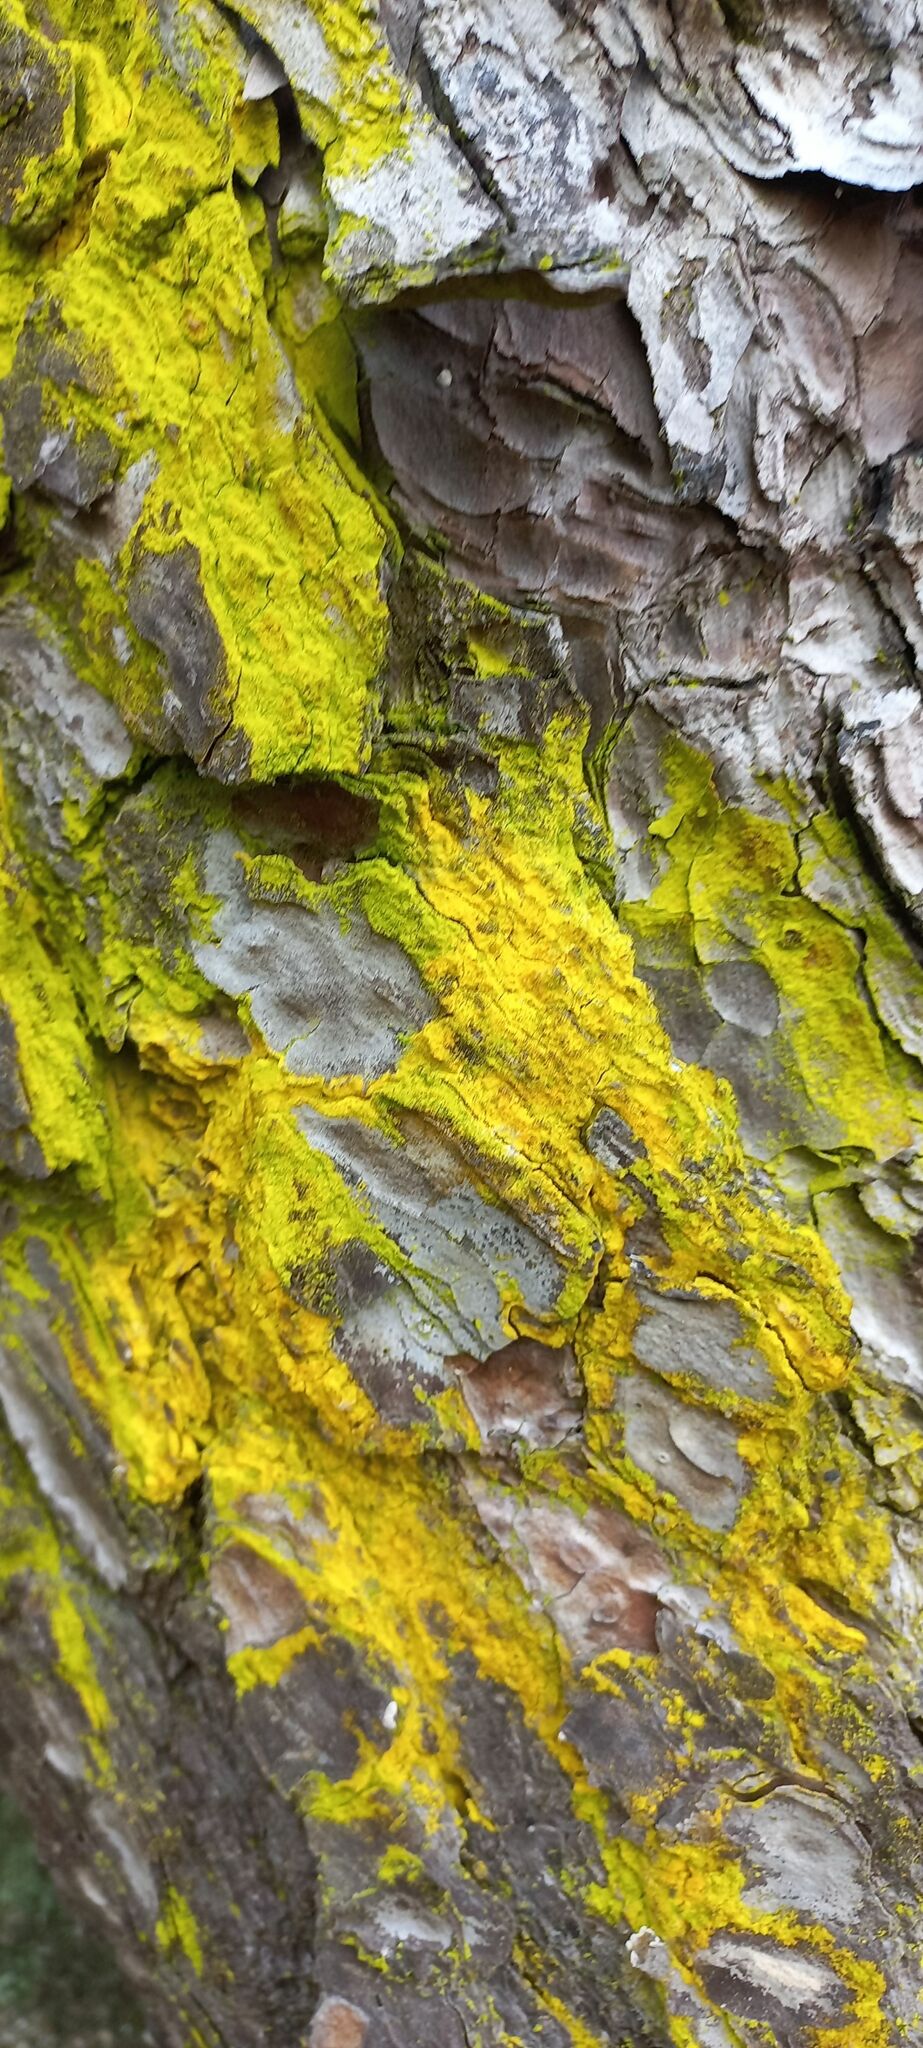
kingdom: Fungi
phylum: Ascomycota
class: Arthoniomycetes
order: Arthoniales
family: Chrysotrichaceae
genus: Chrysothrix
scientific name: Chrysothrix candelaris
